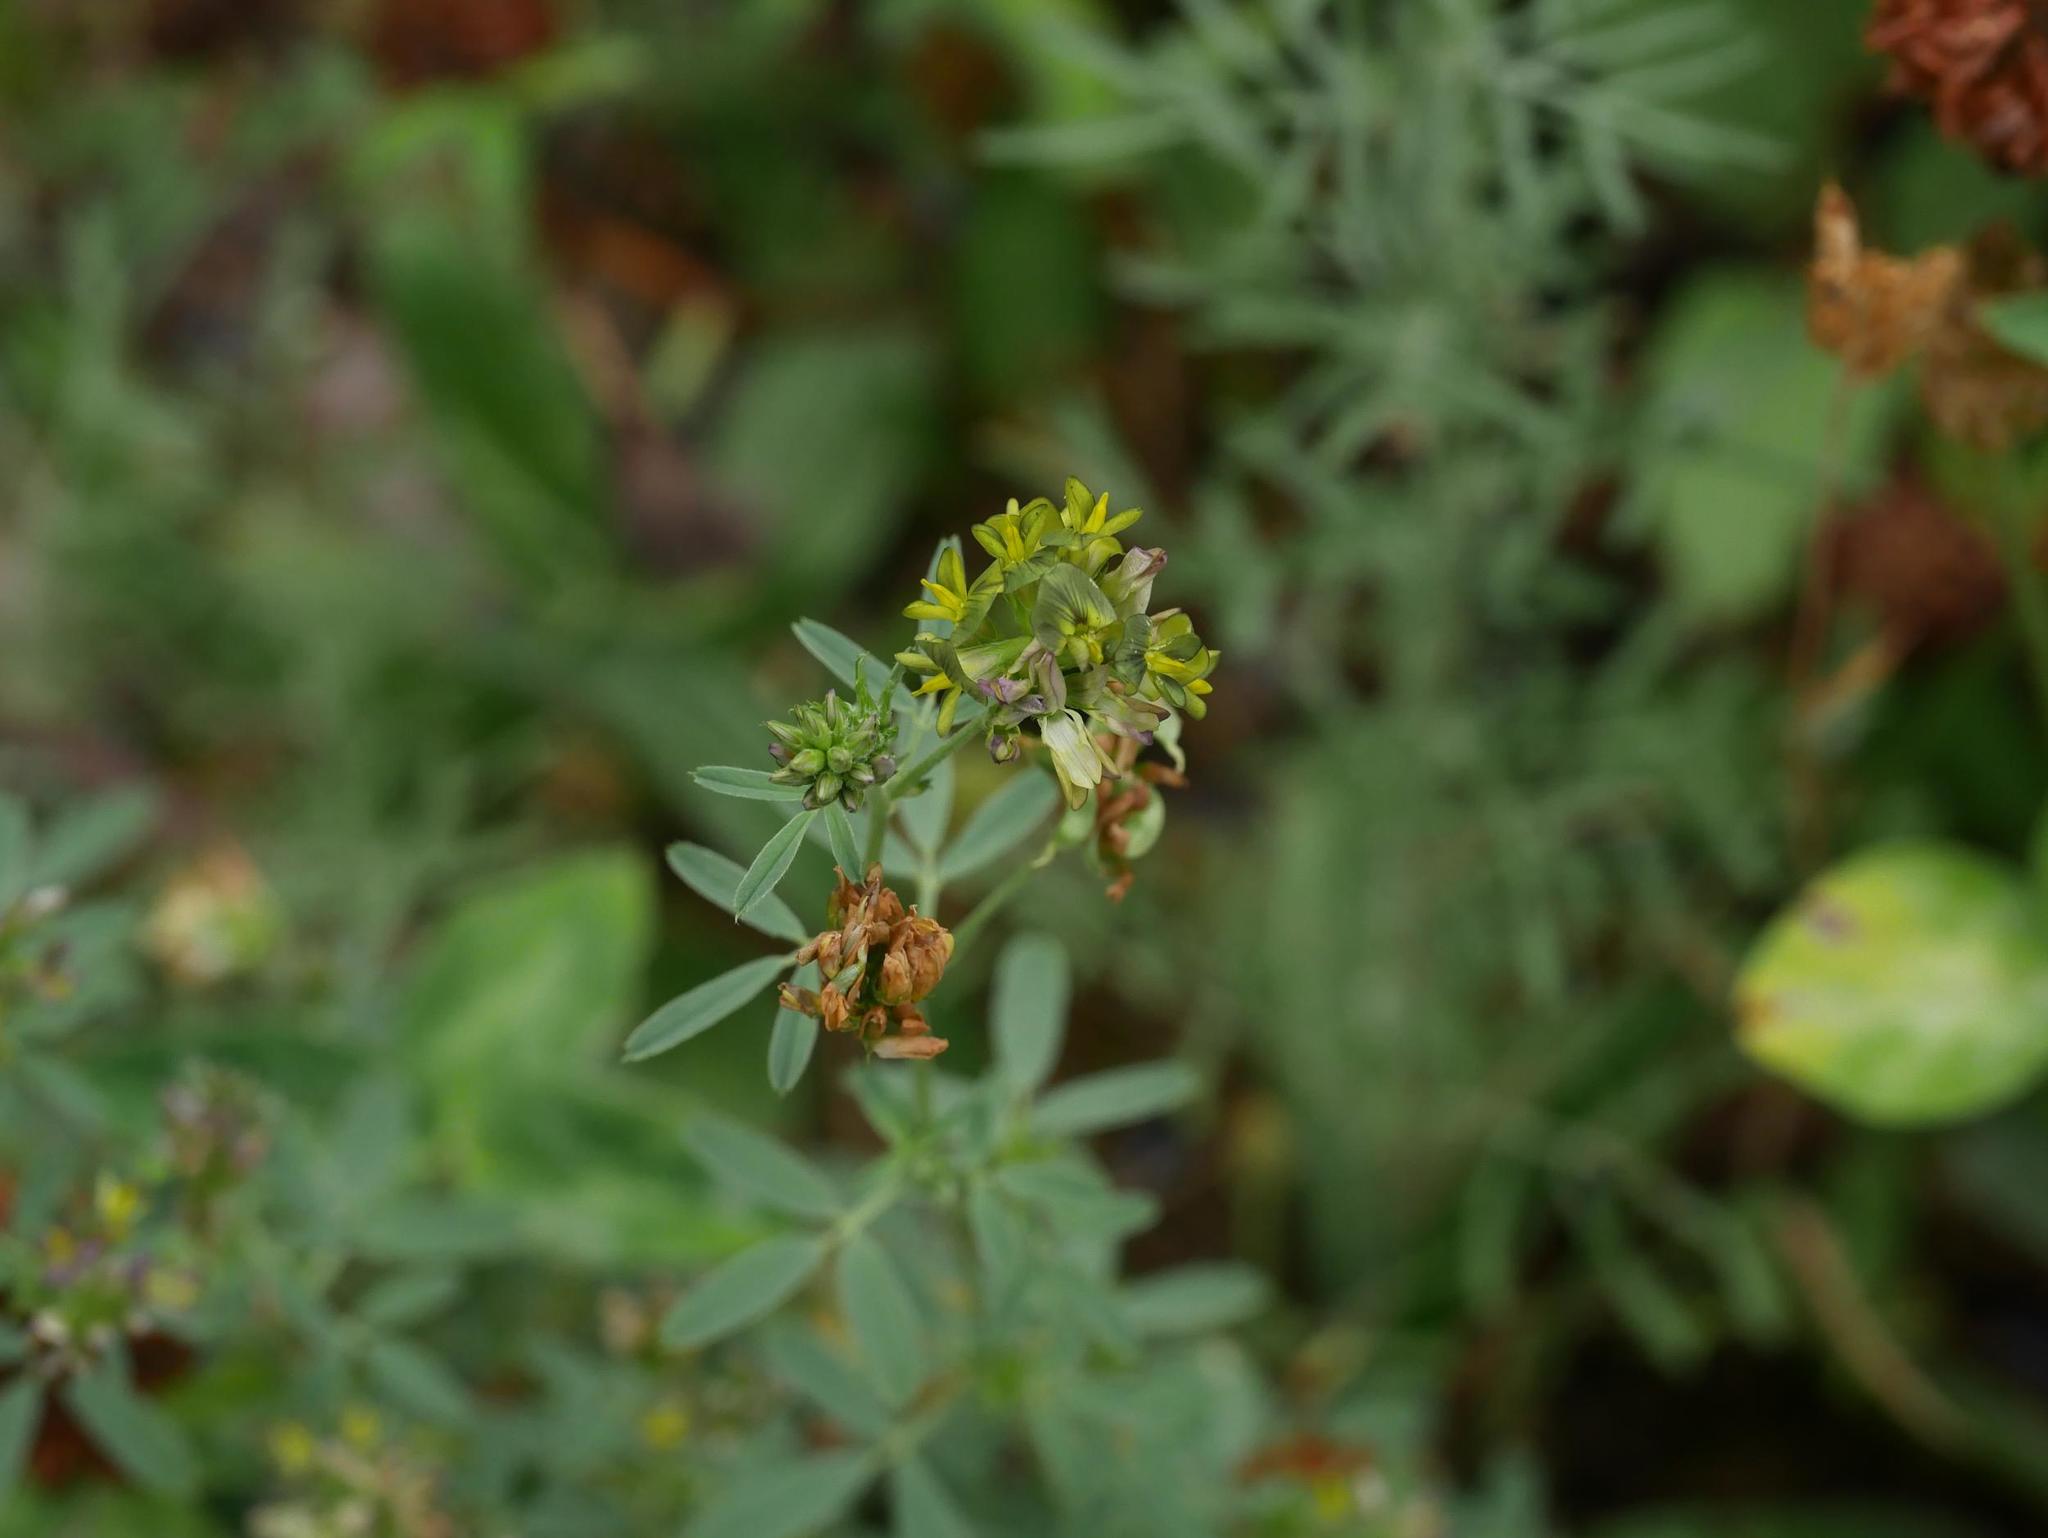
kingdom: Plantae
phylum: Tracheophyta
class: Magnoliopsida
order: Fabales
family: Fabaceae
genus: Medicago
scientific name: Medicago varia
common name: Sand lucerne
